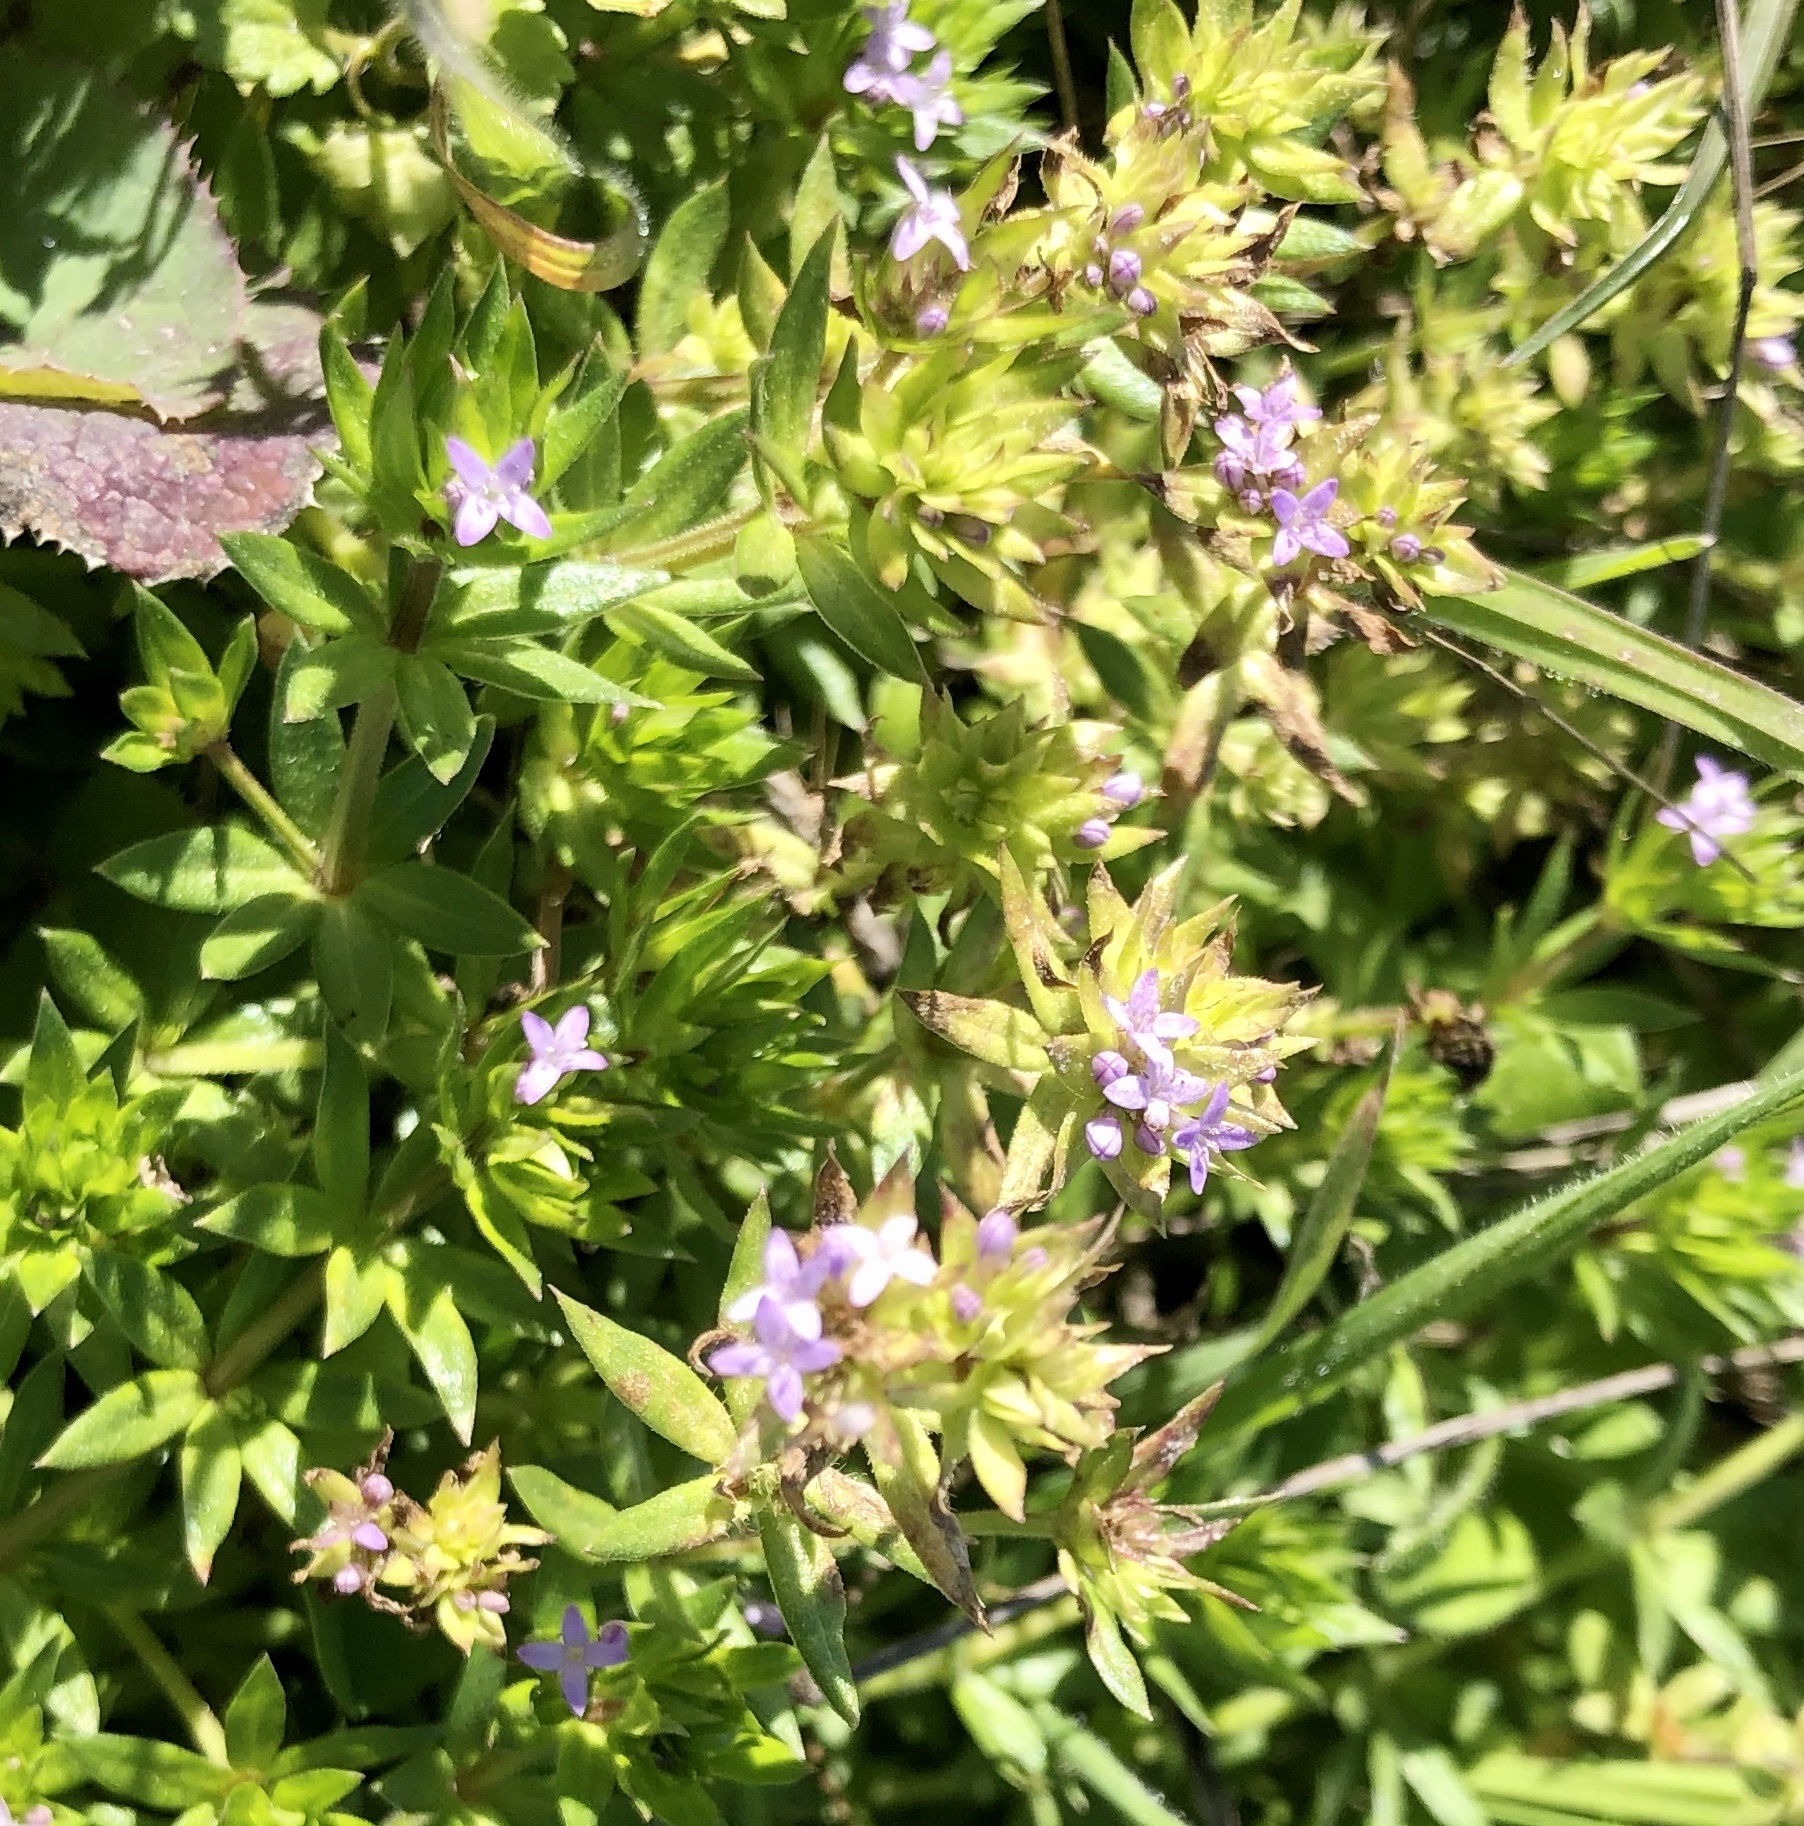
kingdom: Plantae
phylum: Tracheophyta
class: Magnoliopsida
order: Gentianales
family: Rubiaceae
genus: Sherardia
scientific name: Sherardia arvensis
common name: Field madder
